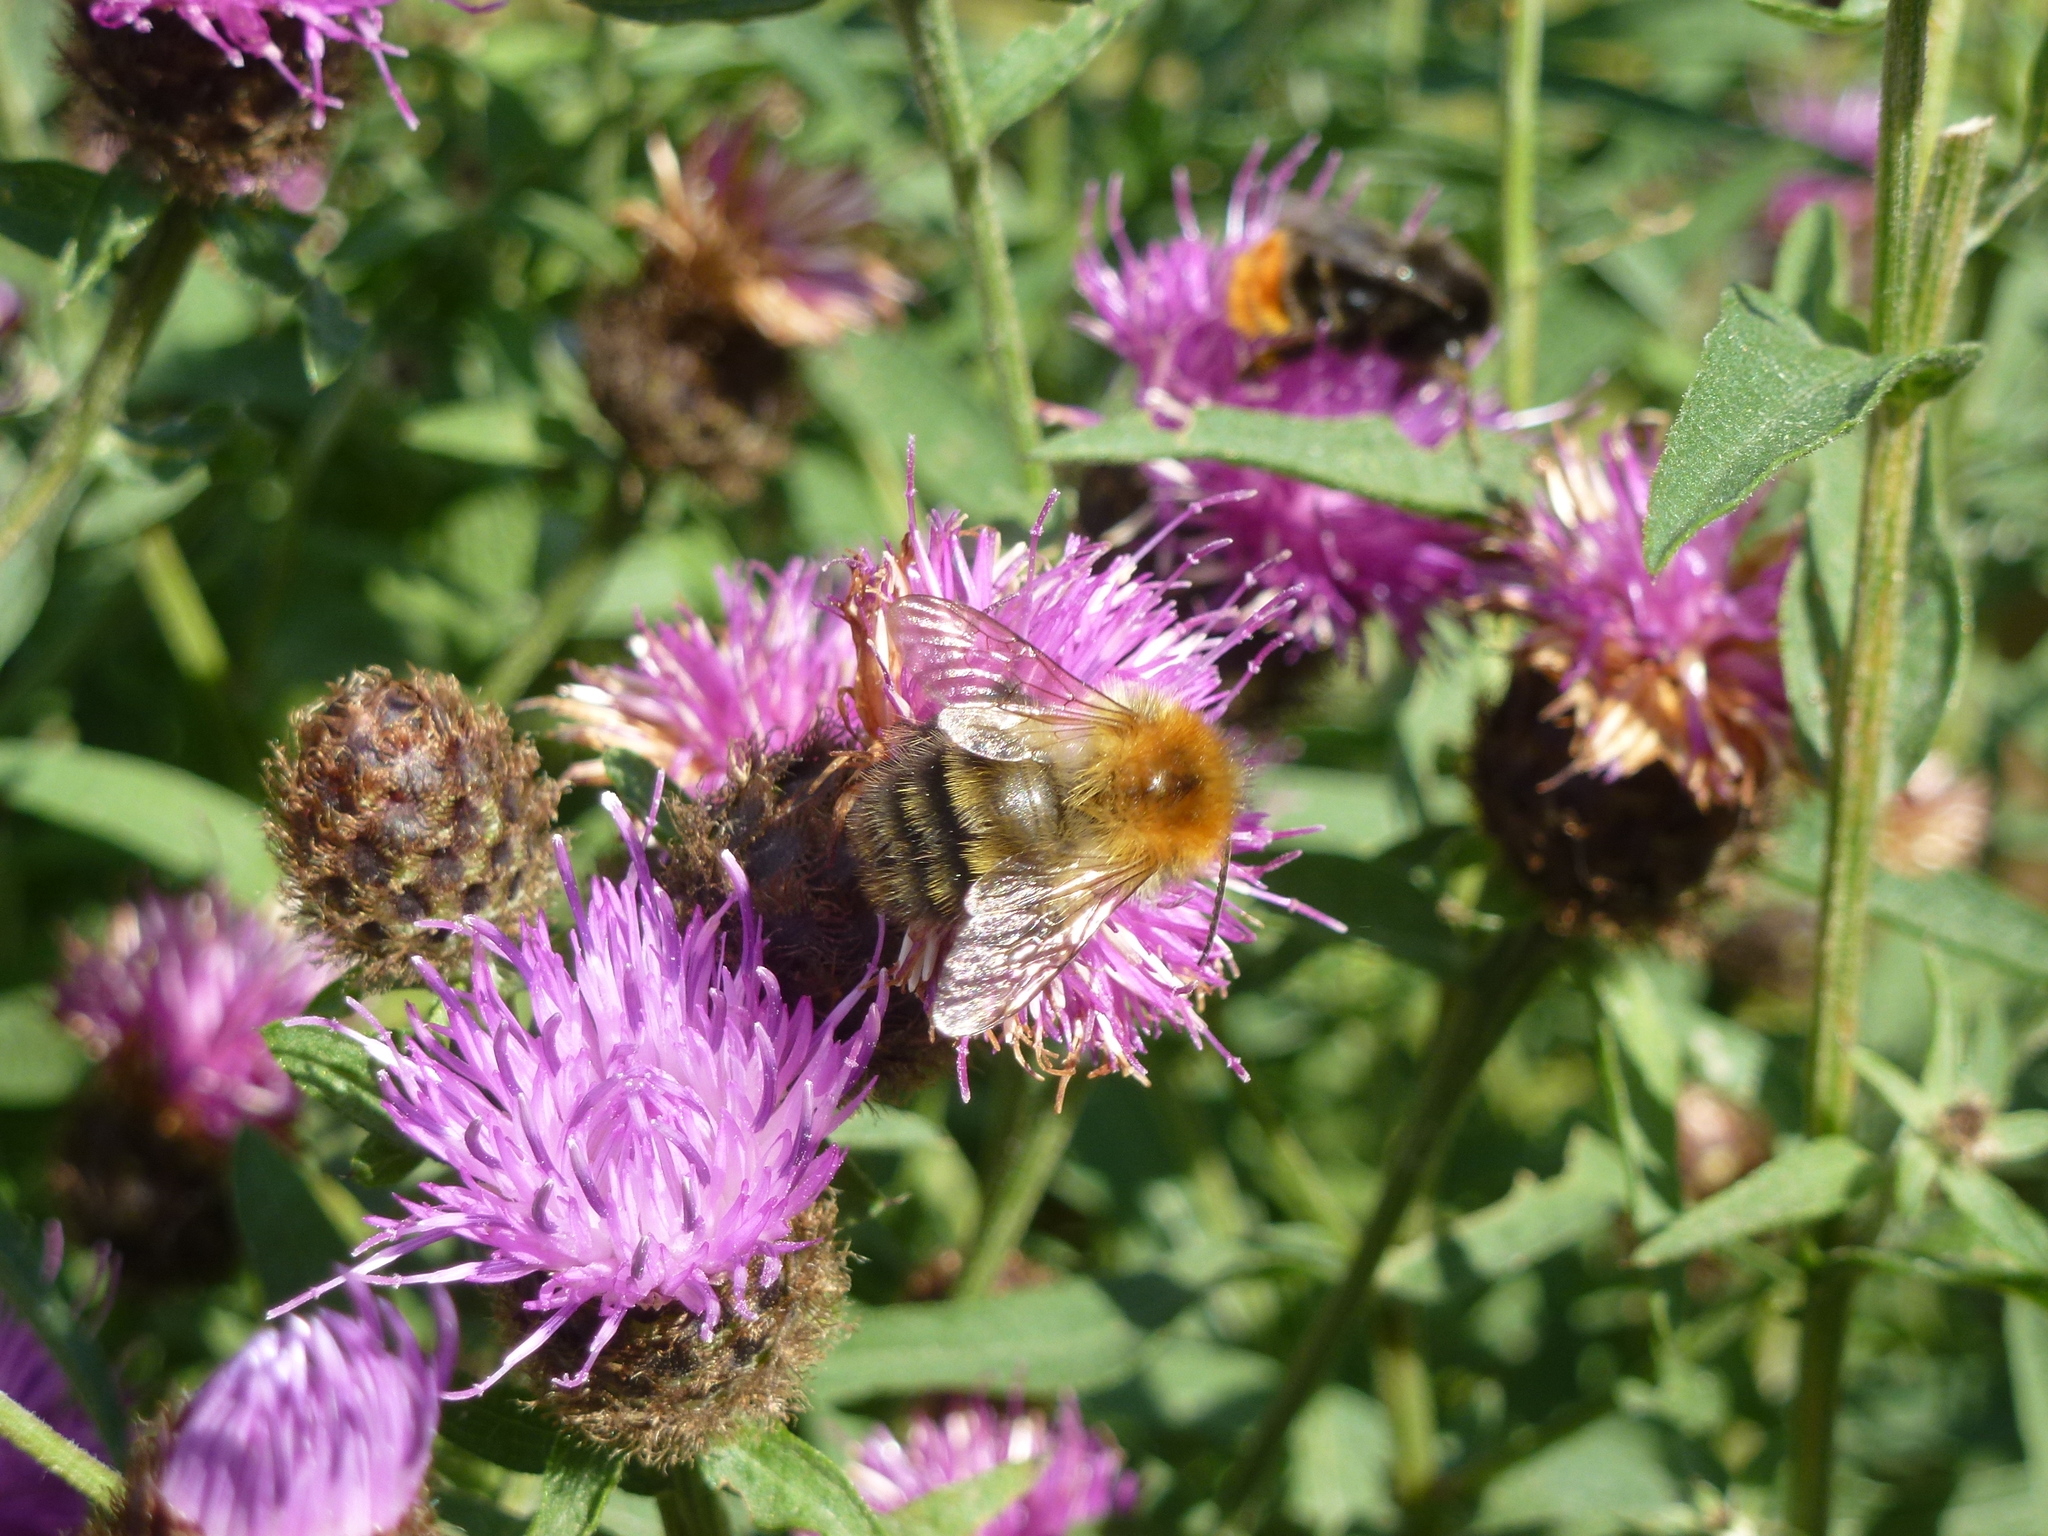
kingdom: Animalia
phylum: Arthropoda
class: Insecta
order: Hymenoptera
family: Apidae
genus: Bombus
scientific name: Bombus pascuorum
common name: Common carder bee
